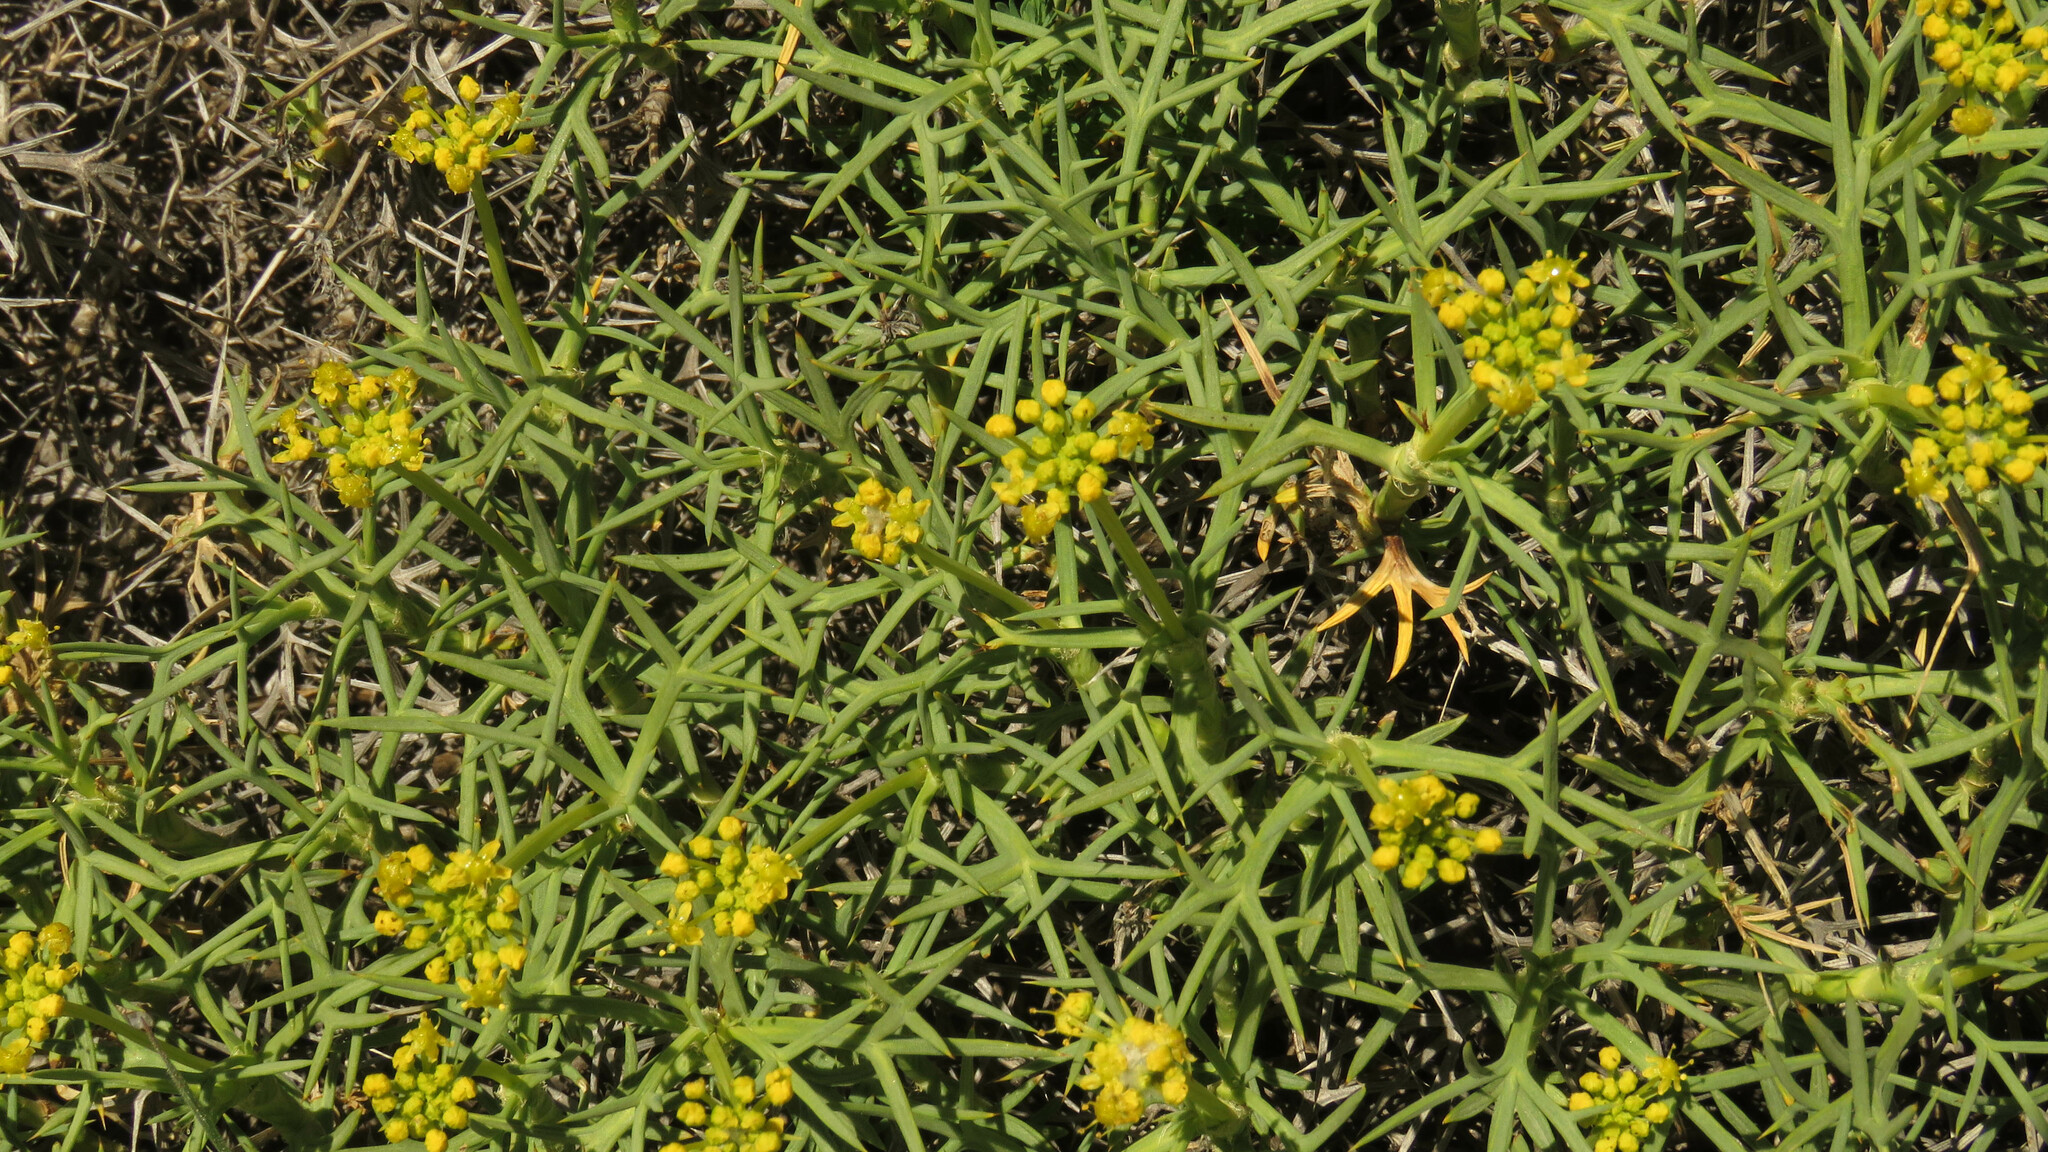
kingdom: Plantae
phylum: Tracheophyta
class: Magnoliopsida
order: Apiales
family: Apiaceae
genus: Azorella
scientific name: Azorella prolifera
